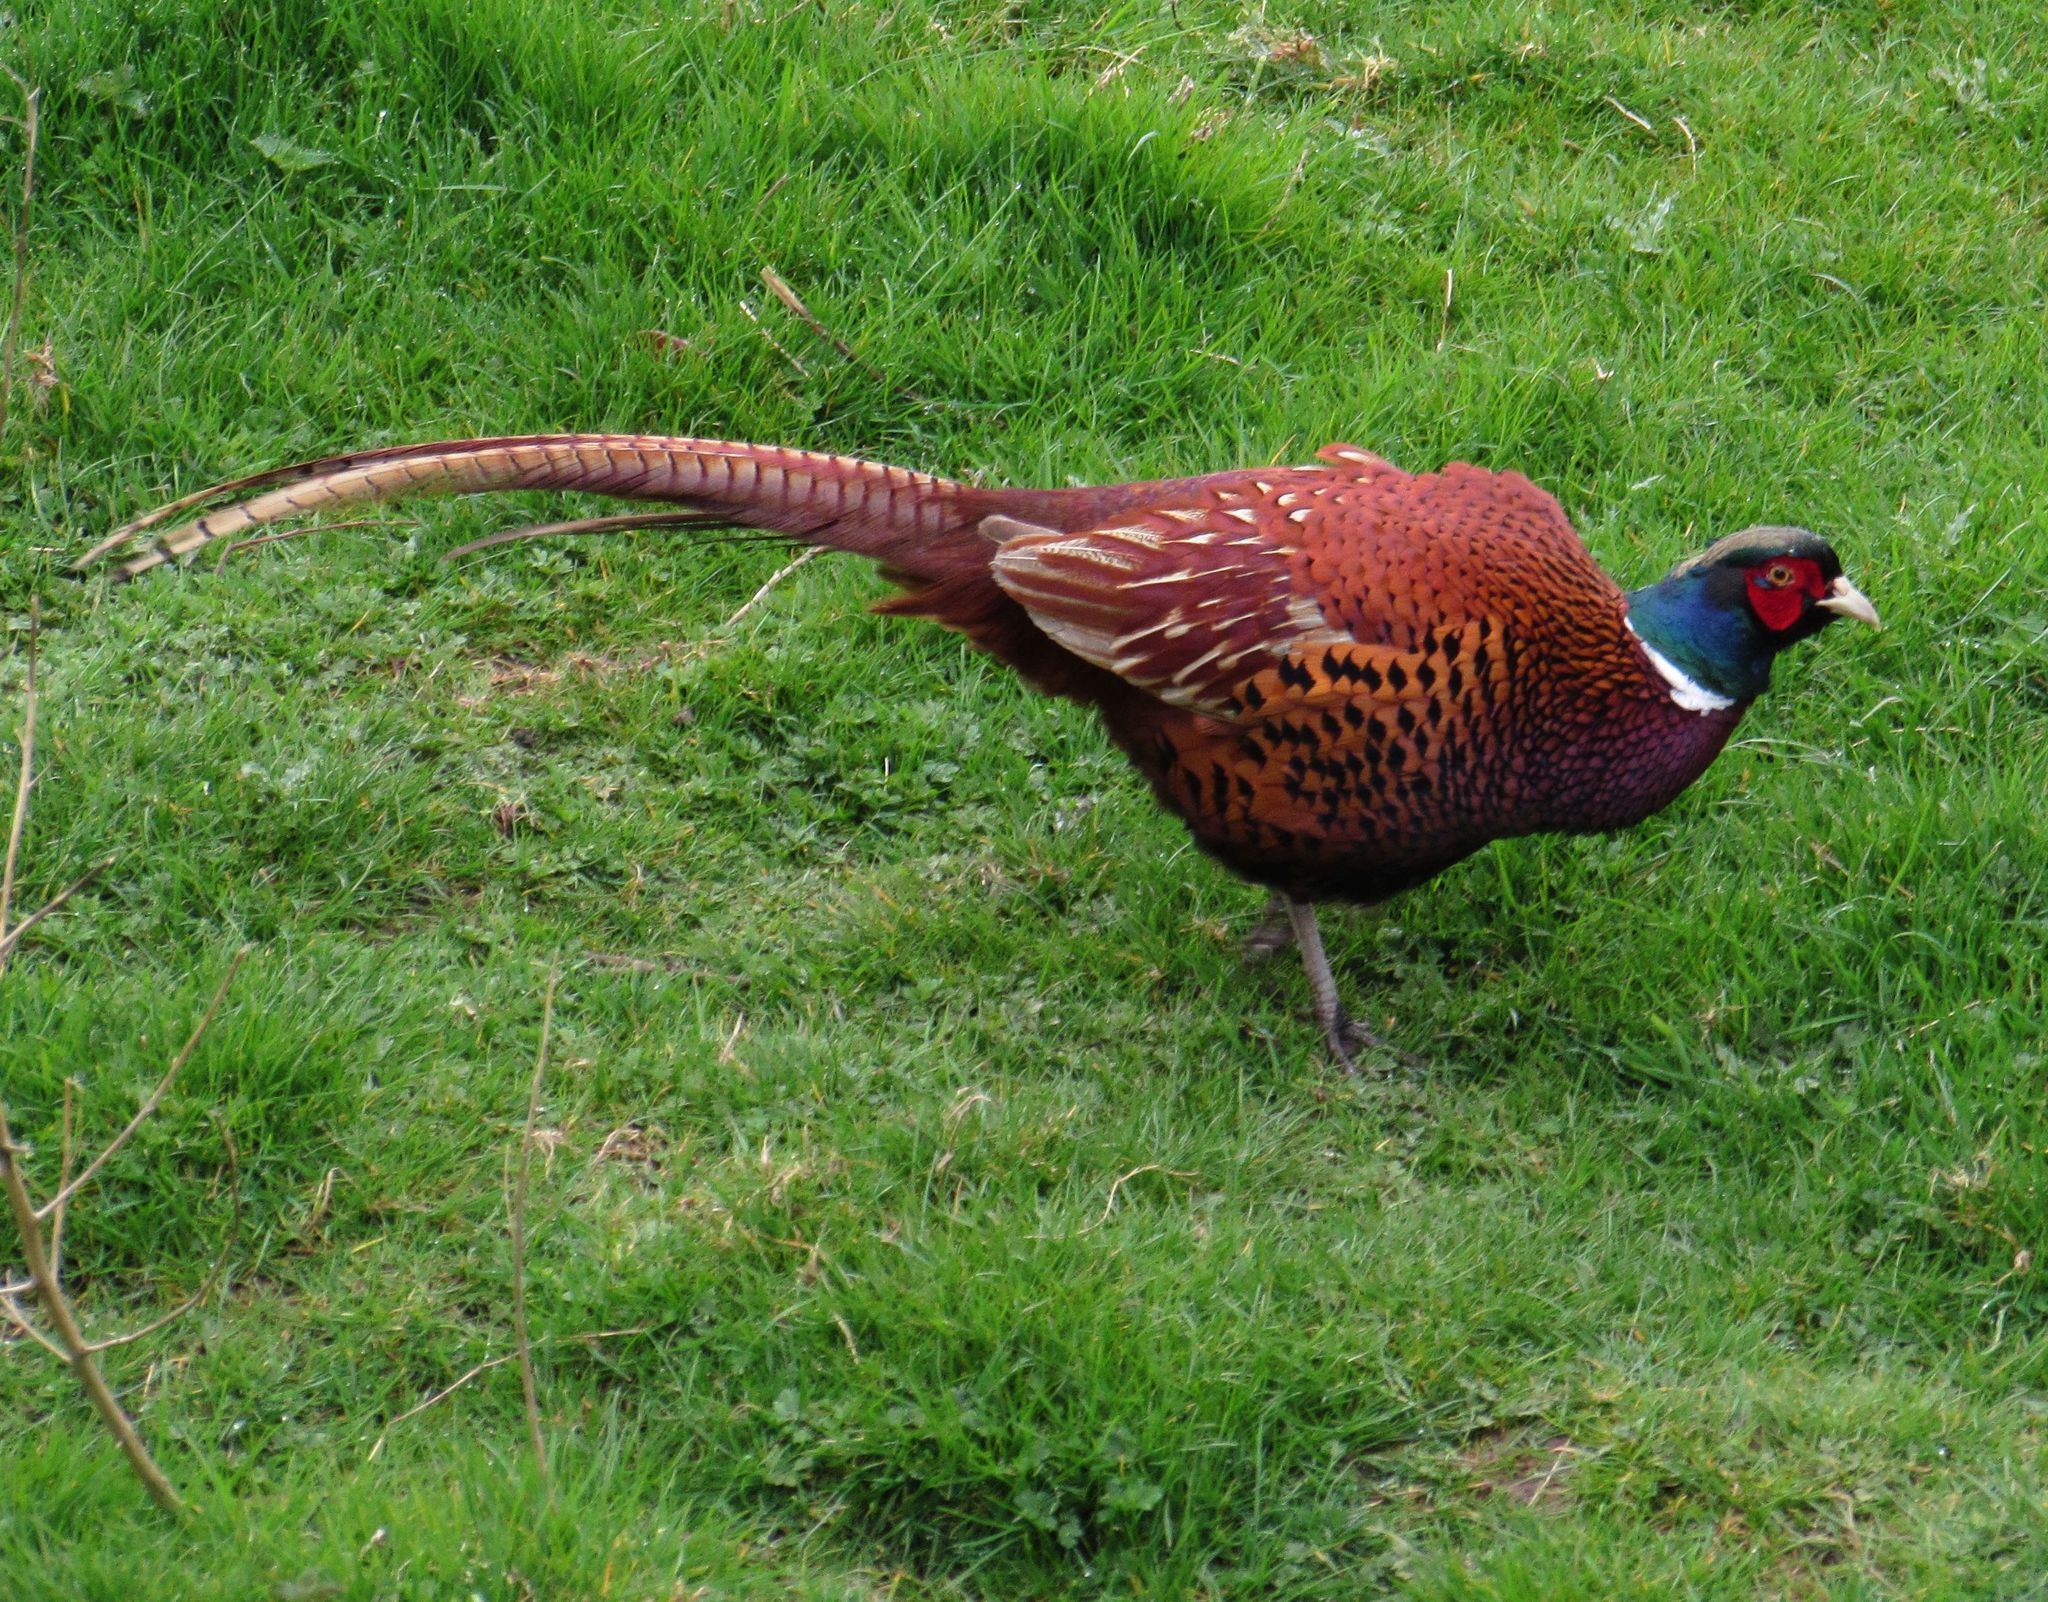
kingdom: Animalia
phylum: Chordata
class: Aves
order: Galliformes
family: Phasianidae
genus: Phasianus
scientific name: Phasianus colchicus
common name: Common pheasant
